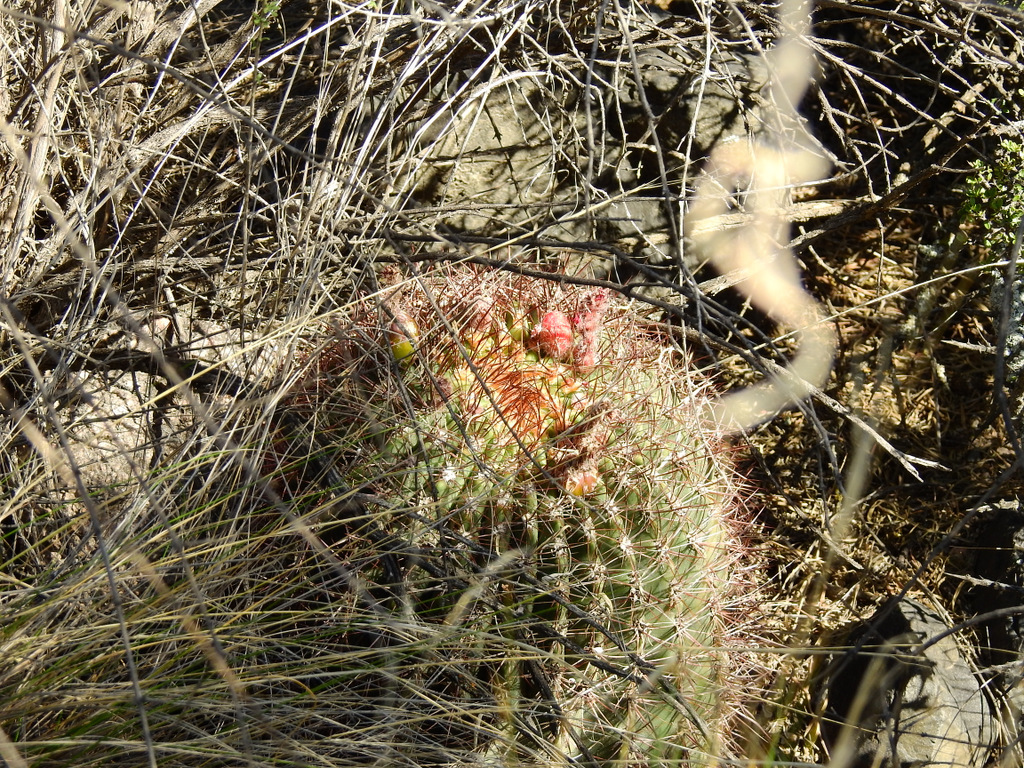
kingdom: Plantae
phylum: Tracheophyta
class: Magnoliopsida
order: Caryophyllales
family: Cactaceae
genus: Denmoza
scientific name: Denmoza rhodacantha
